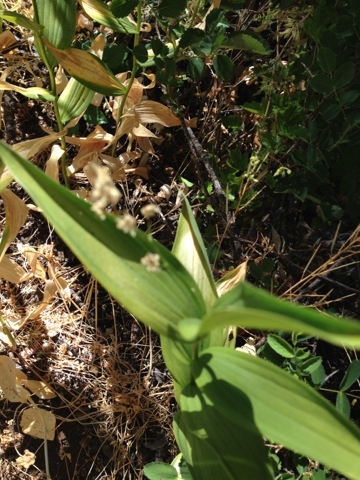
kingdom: Plantae
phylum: Tracheophyta
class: Liliopsida
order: Asparagales
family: Asparagaceae
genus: Maianthemum
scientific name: Maianthemum stellatum
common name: Little false solomon's seal
